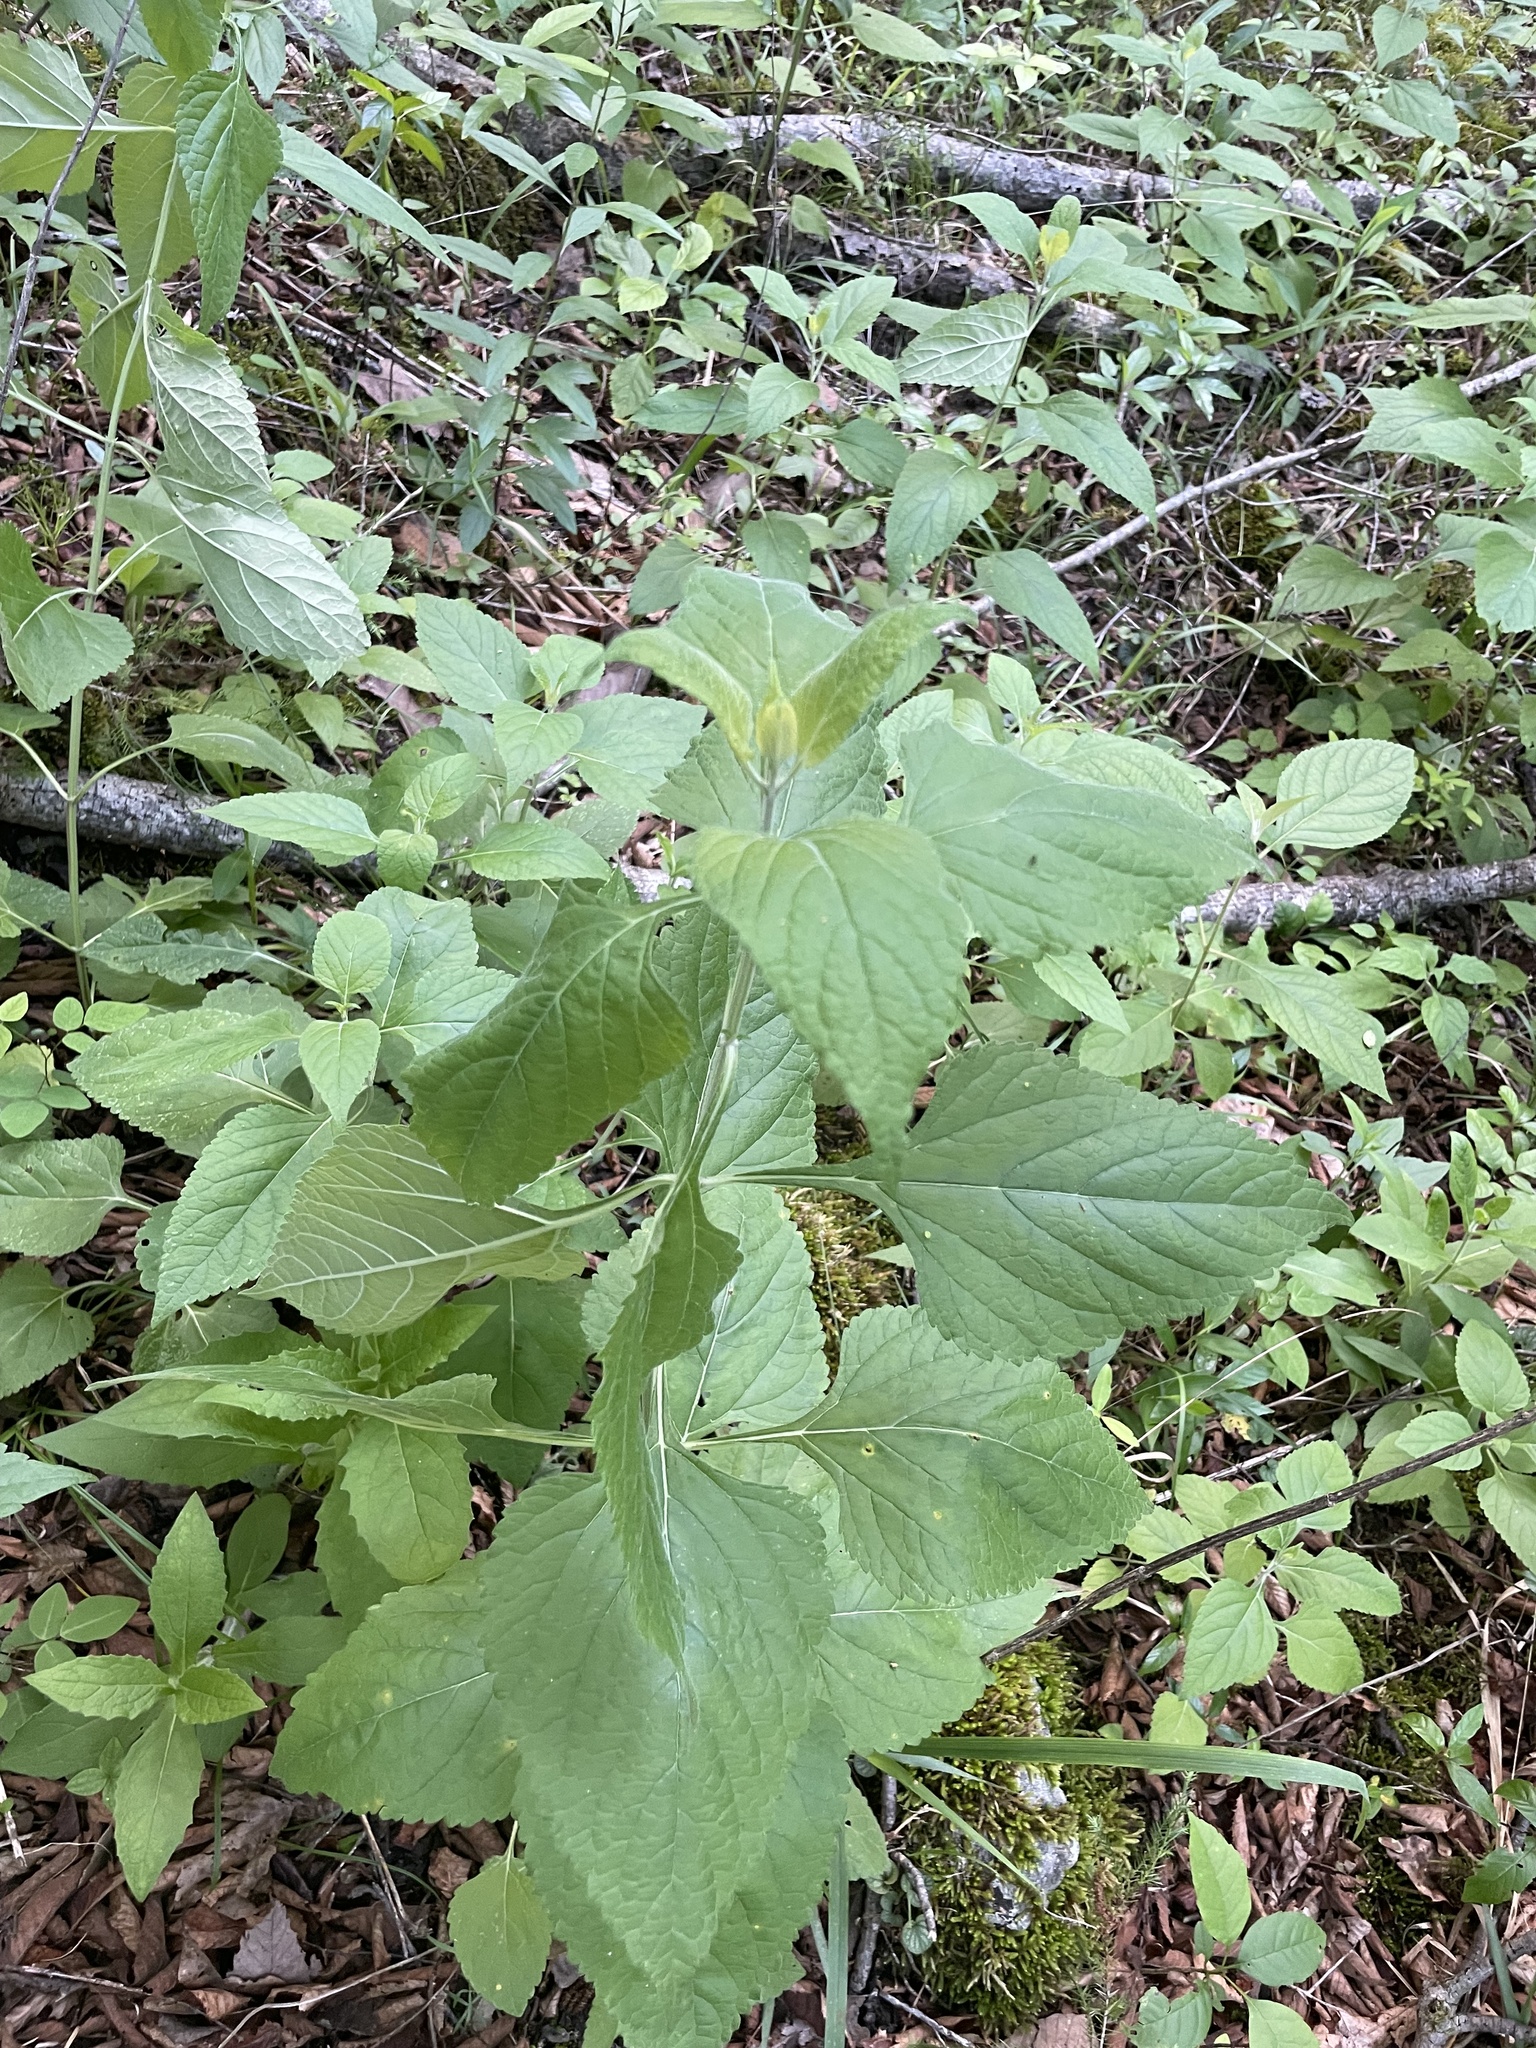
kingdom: Plantae
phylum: Tracheophyta
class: Magnoliopsida
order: Lamiales
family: Lamiaceae
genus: Salvia
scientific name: Salvia chapmanii
